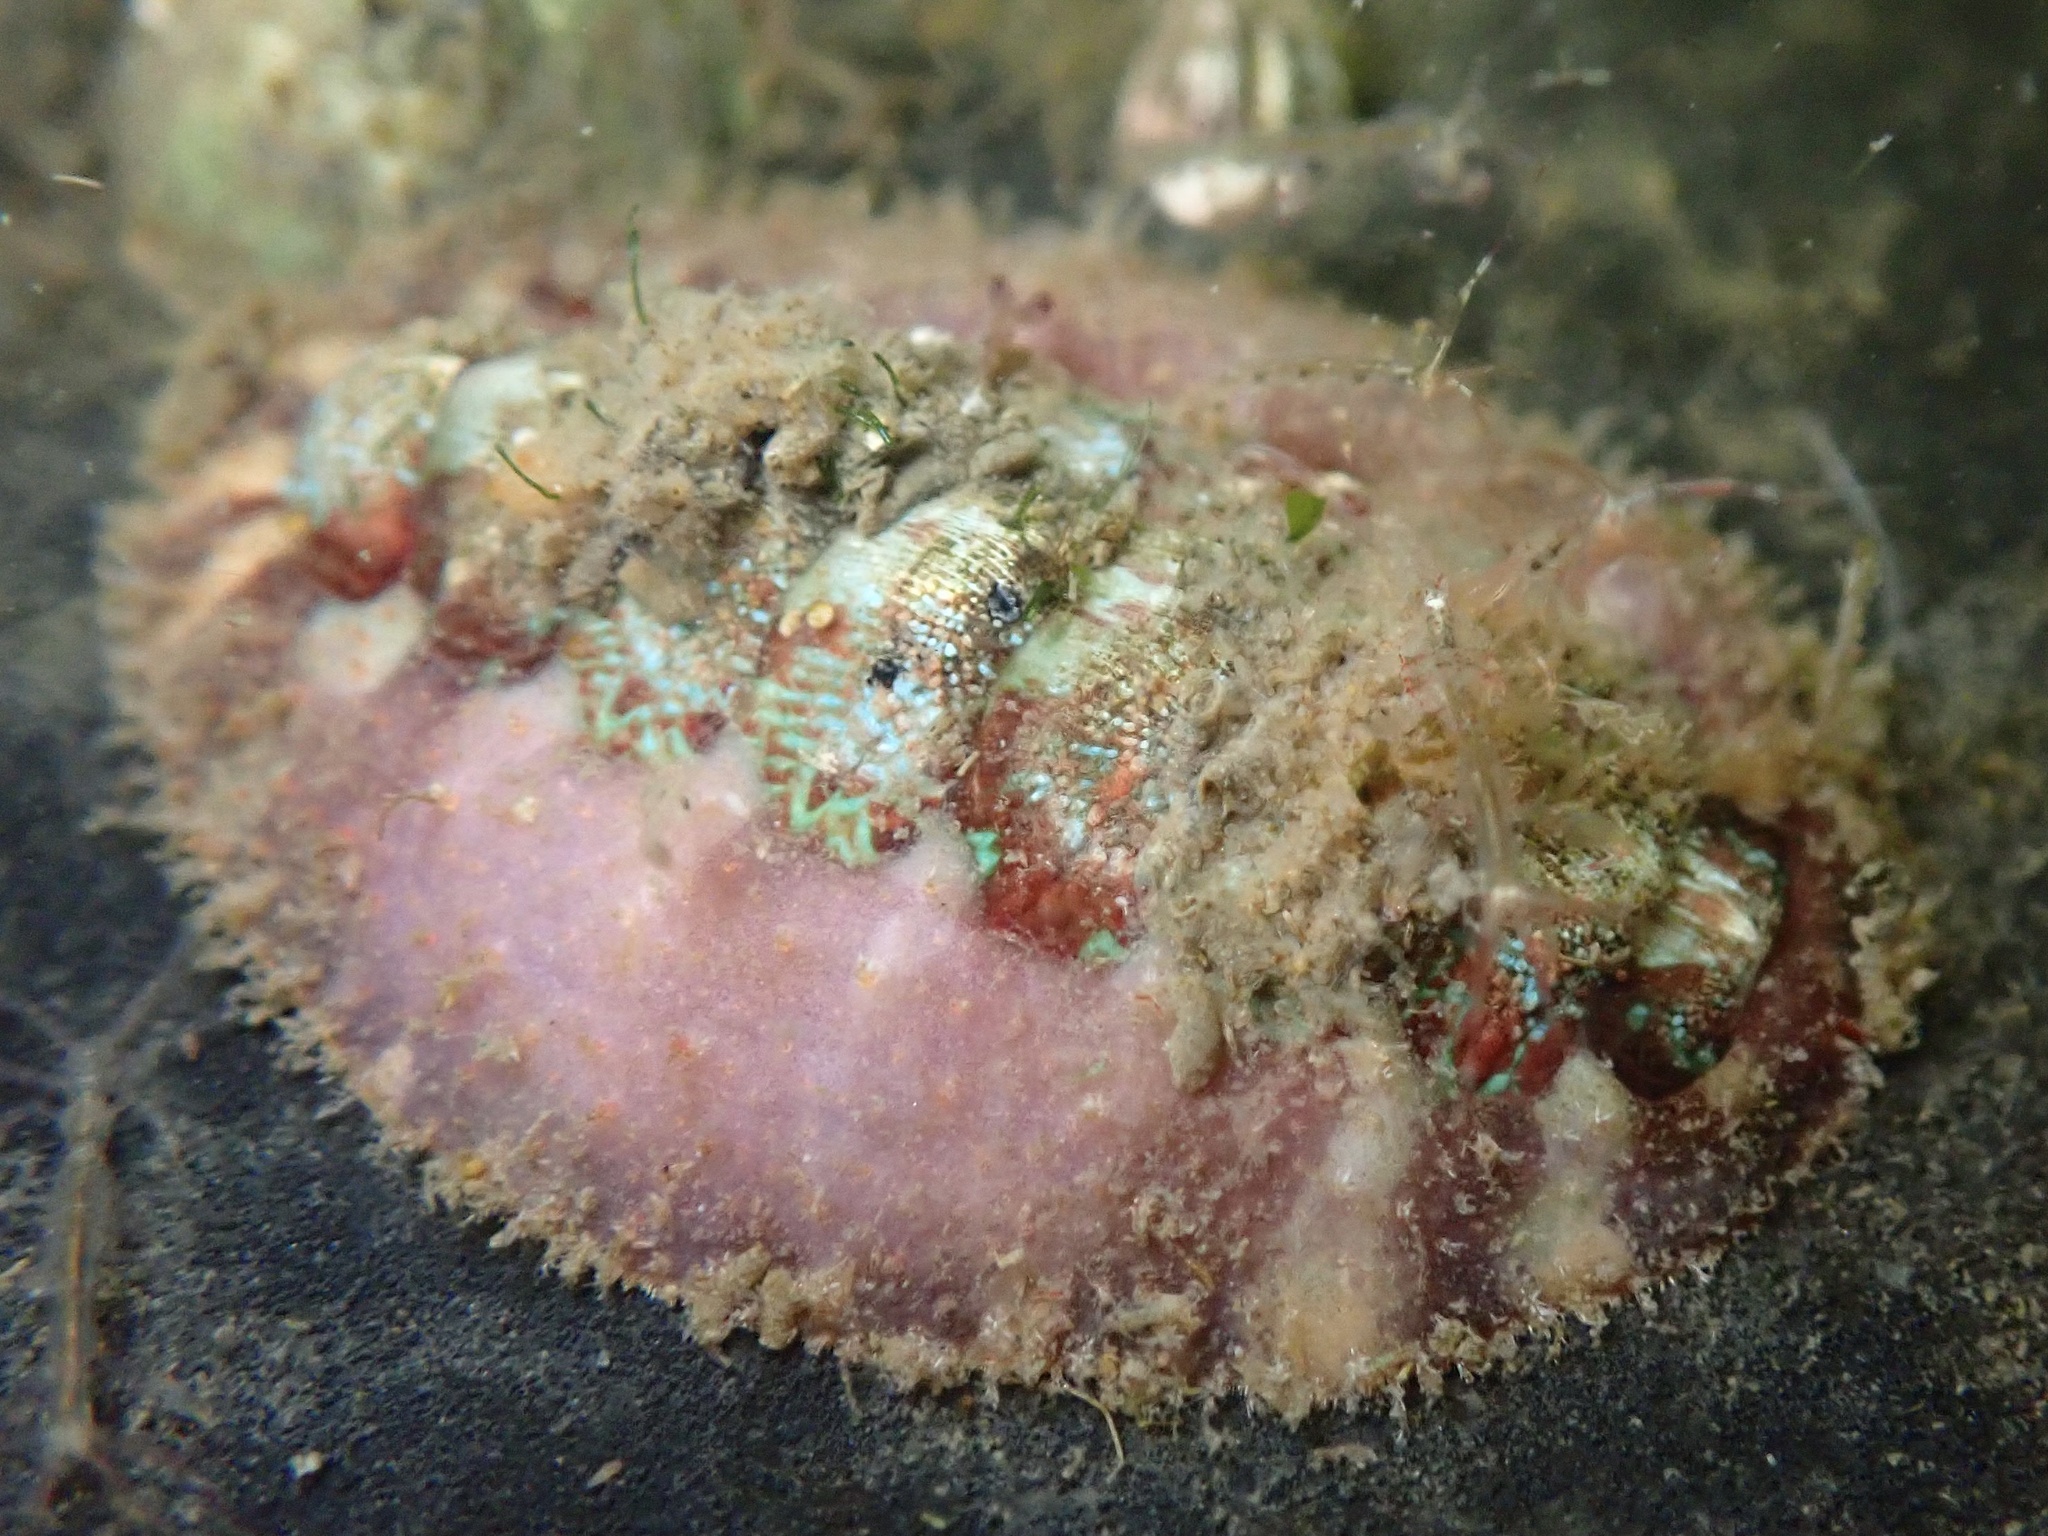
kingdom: Animalia
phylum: Mollusca
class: Polyplacophora
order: Chitonida
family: Mopaliidae
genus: Mopalia
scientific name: Mopalia spectabilis
